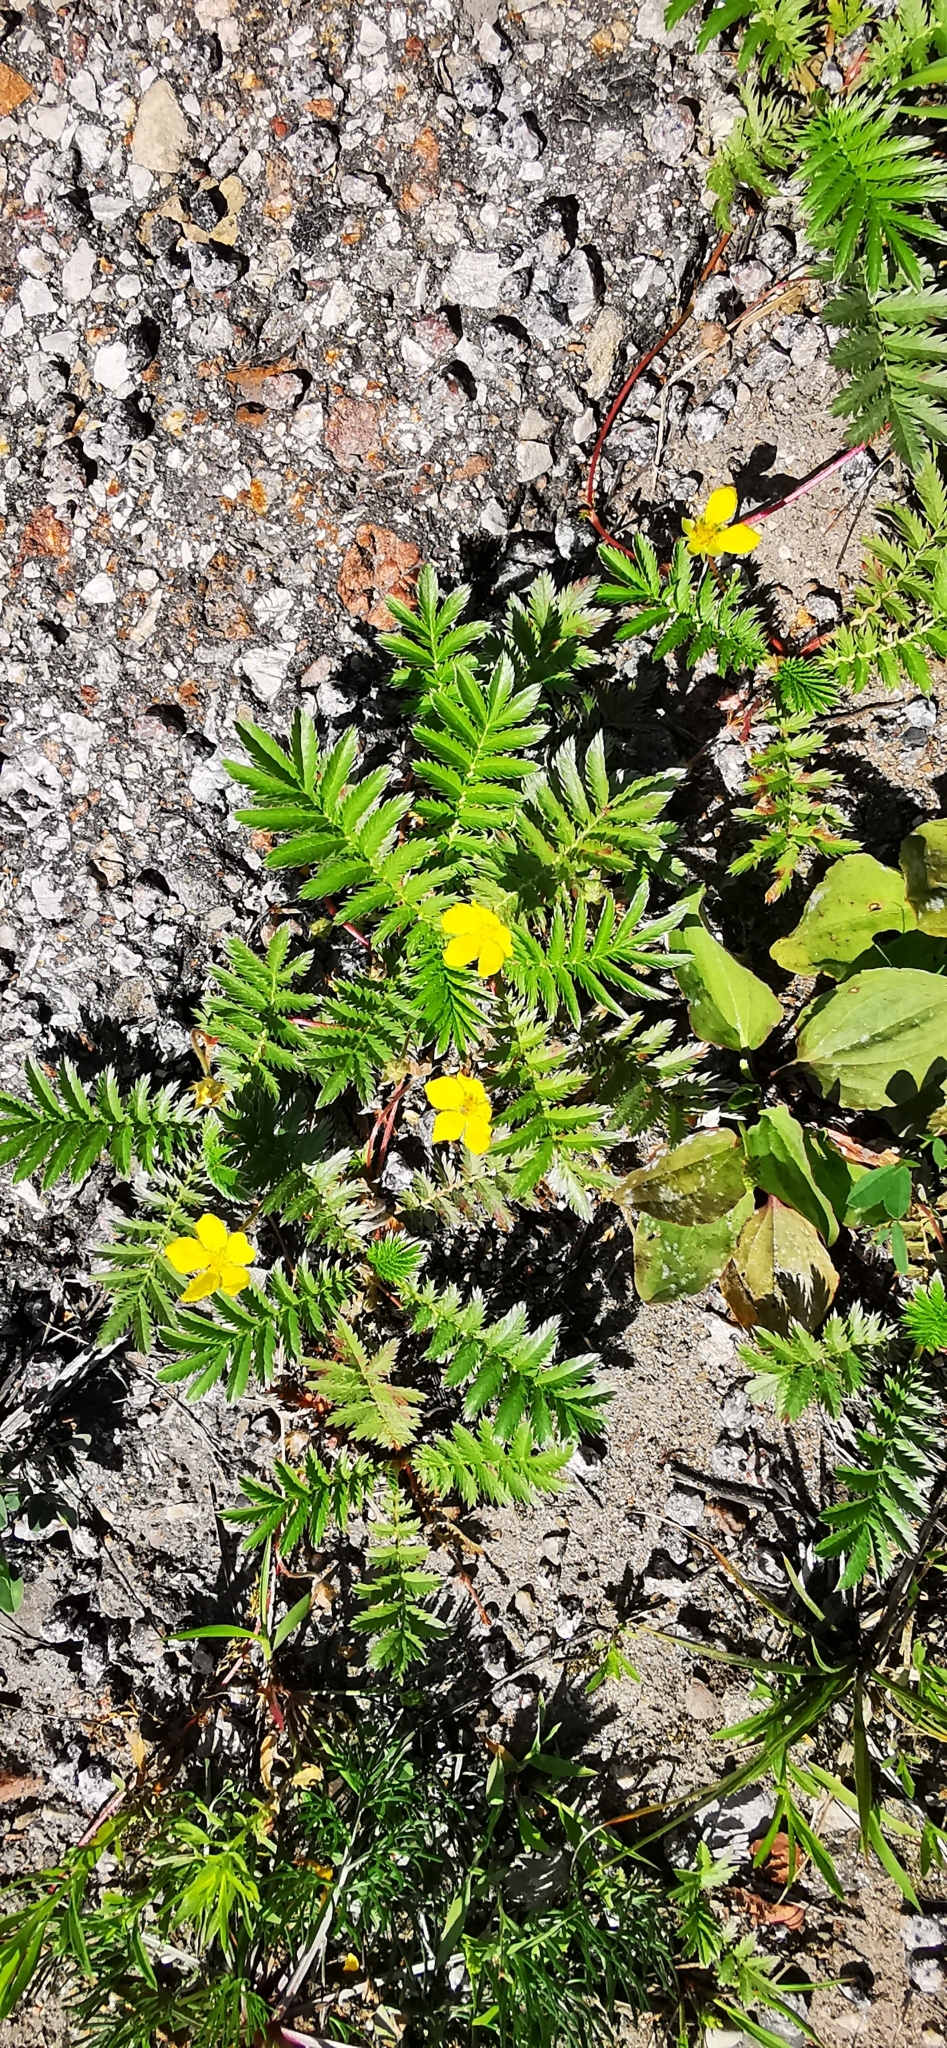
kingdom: Plantae
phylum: Tracheophyta
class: Magnoliopsida
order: Rosales
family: Rosaceae
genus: Argentina
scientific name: Argentina anserina
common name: Common silverweed
